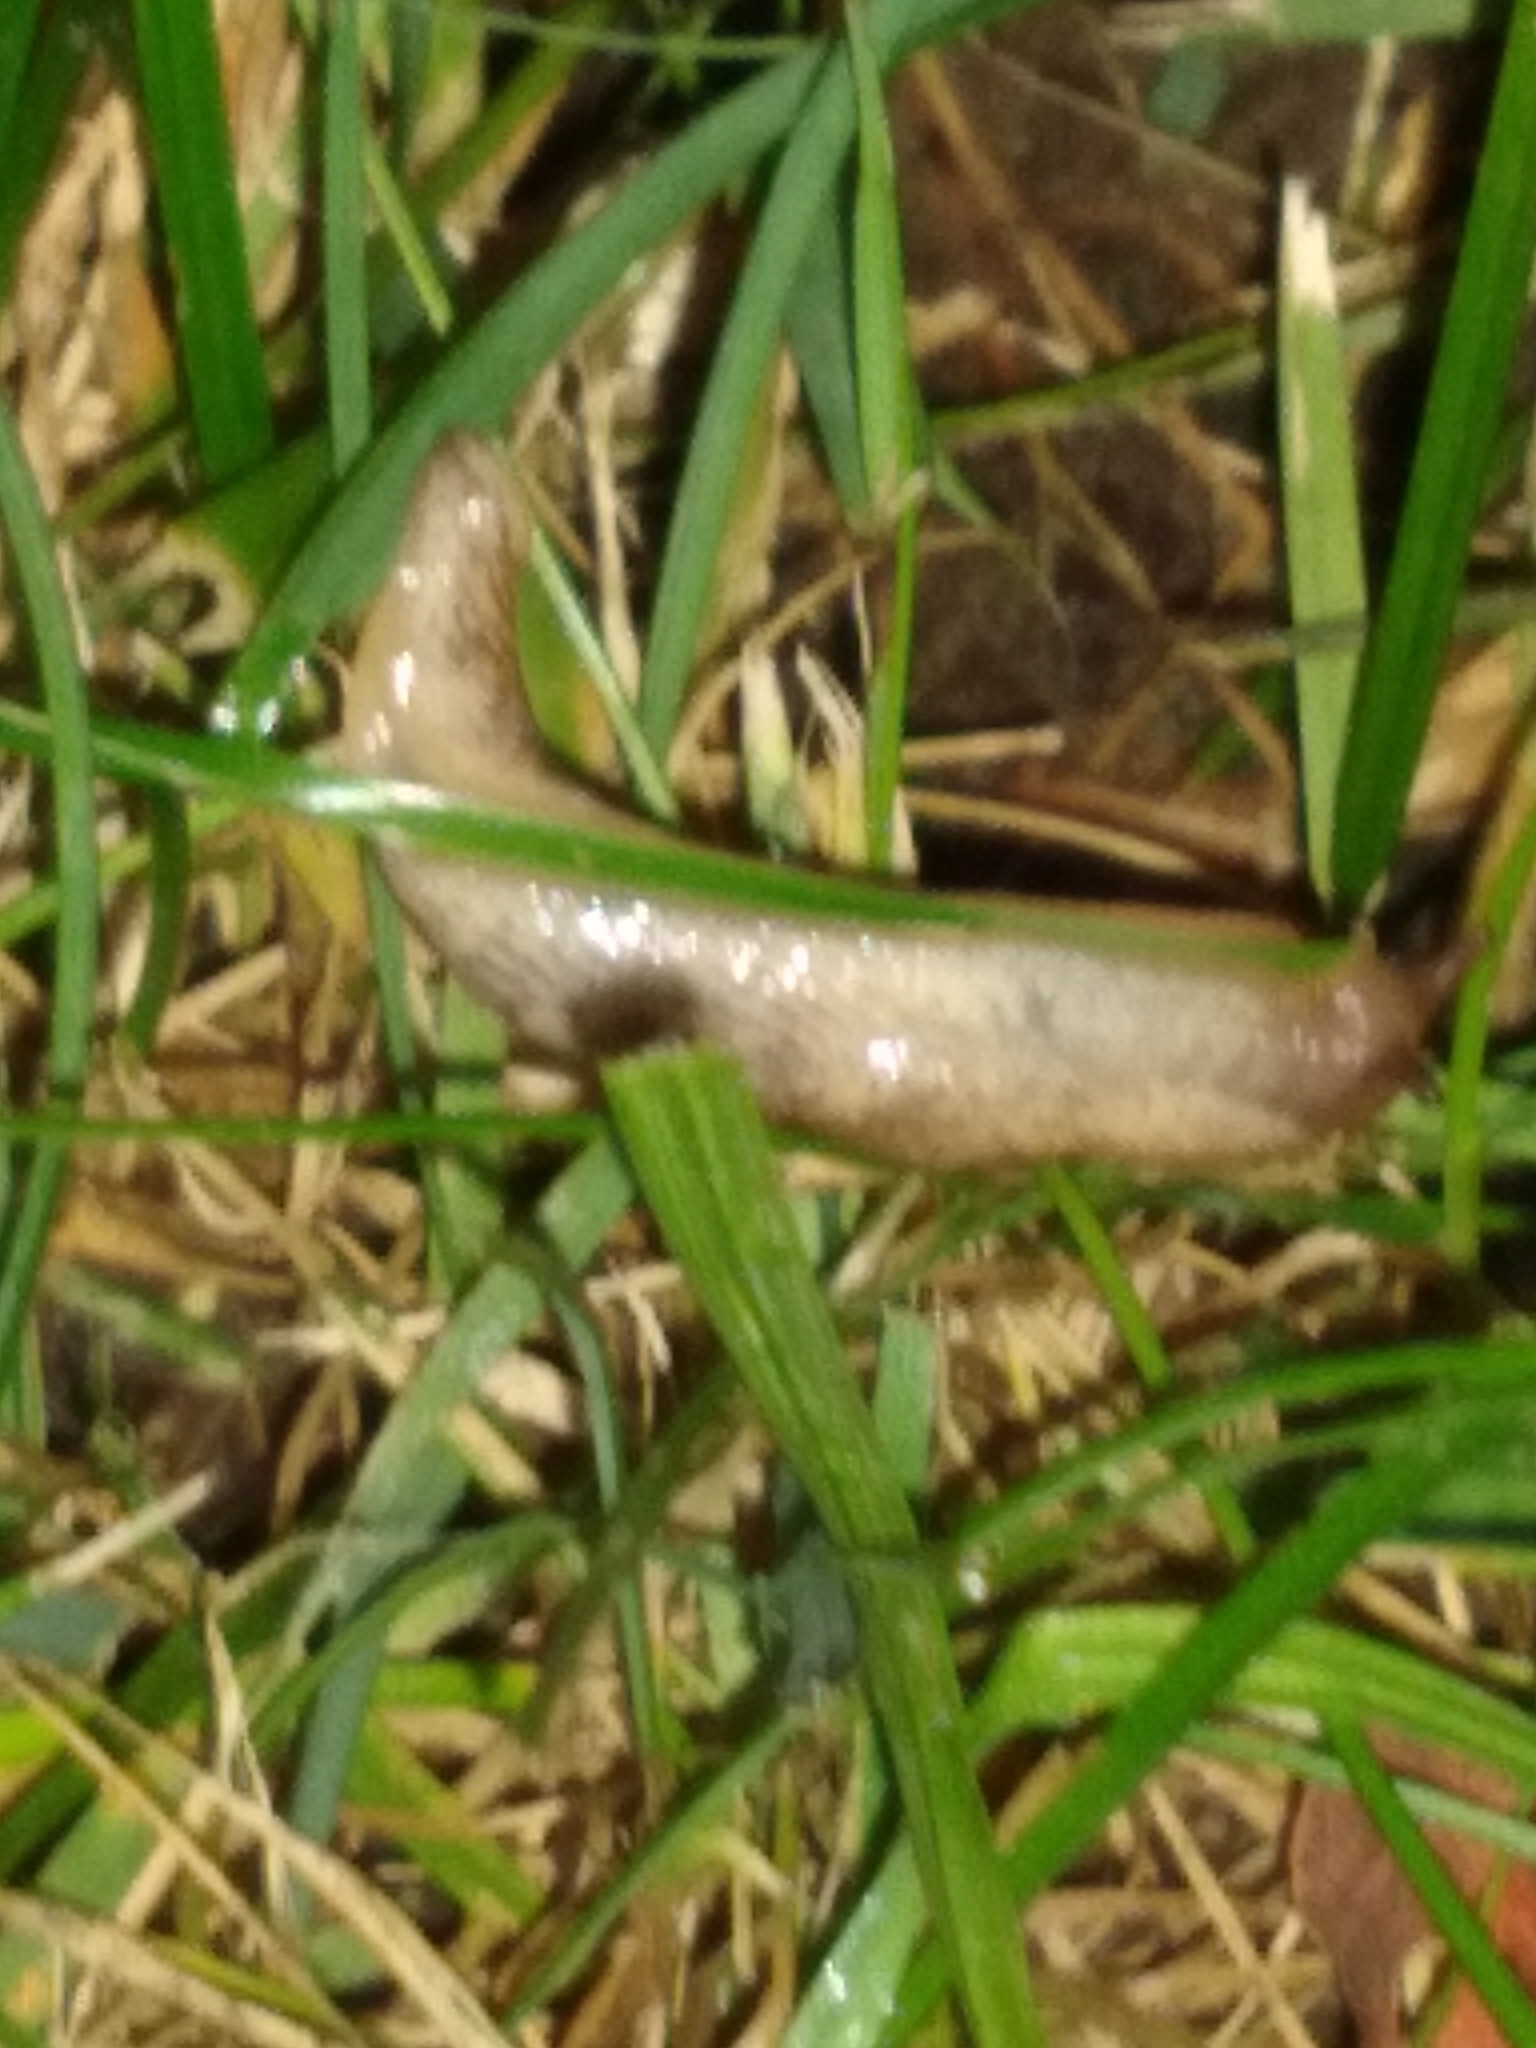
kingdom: Animalia
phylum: Mollusca
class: Gastropoda
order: Stylommatophora
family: Agriolimacidae
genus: Deroceras
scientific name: Deroceras reticulatum
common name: Gray field slug
